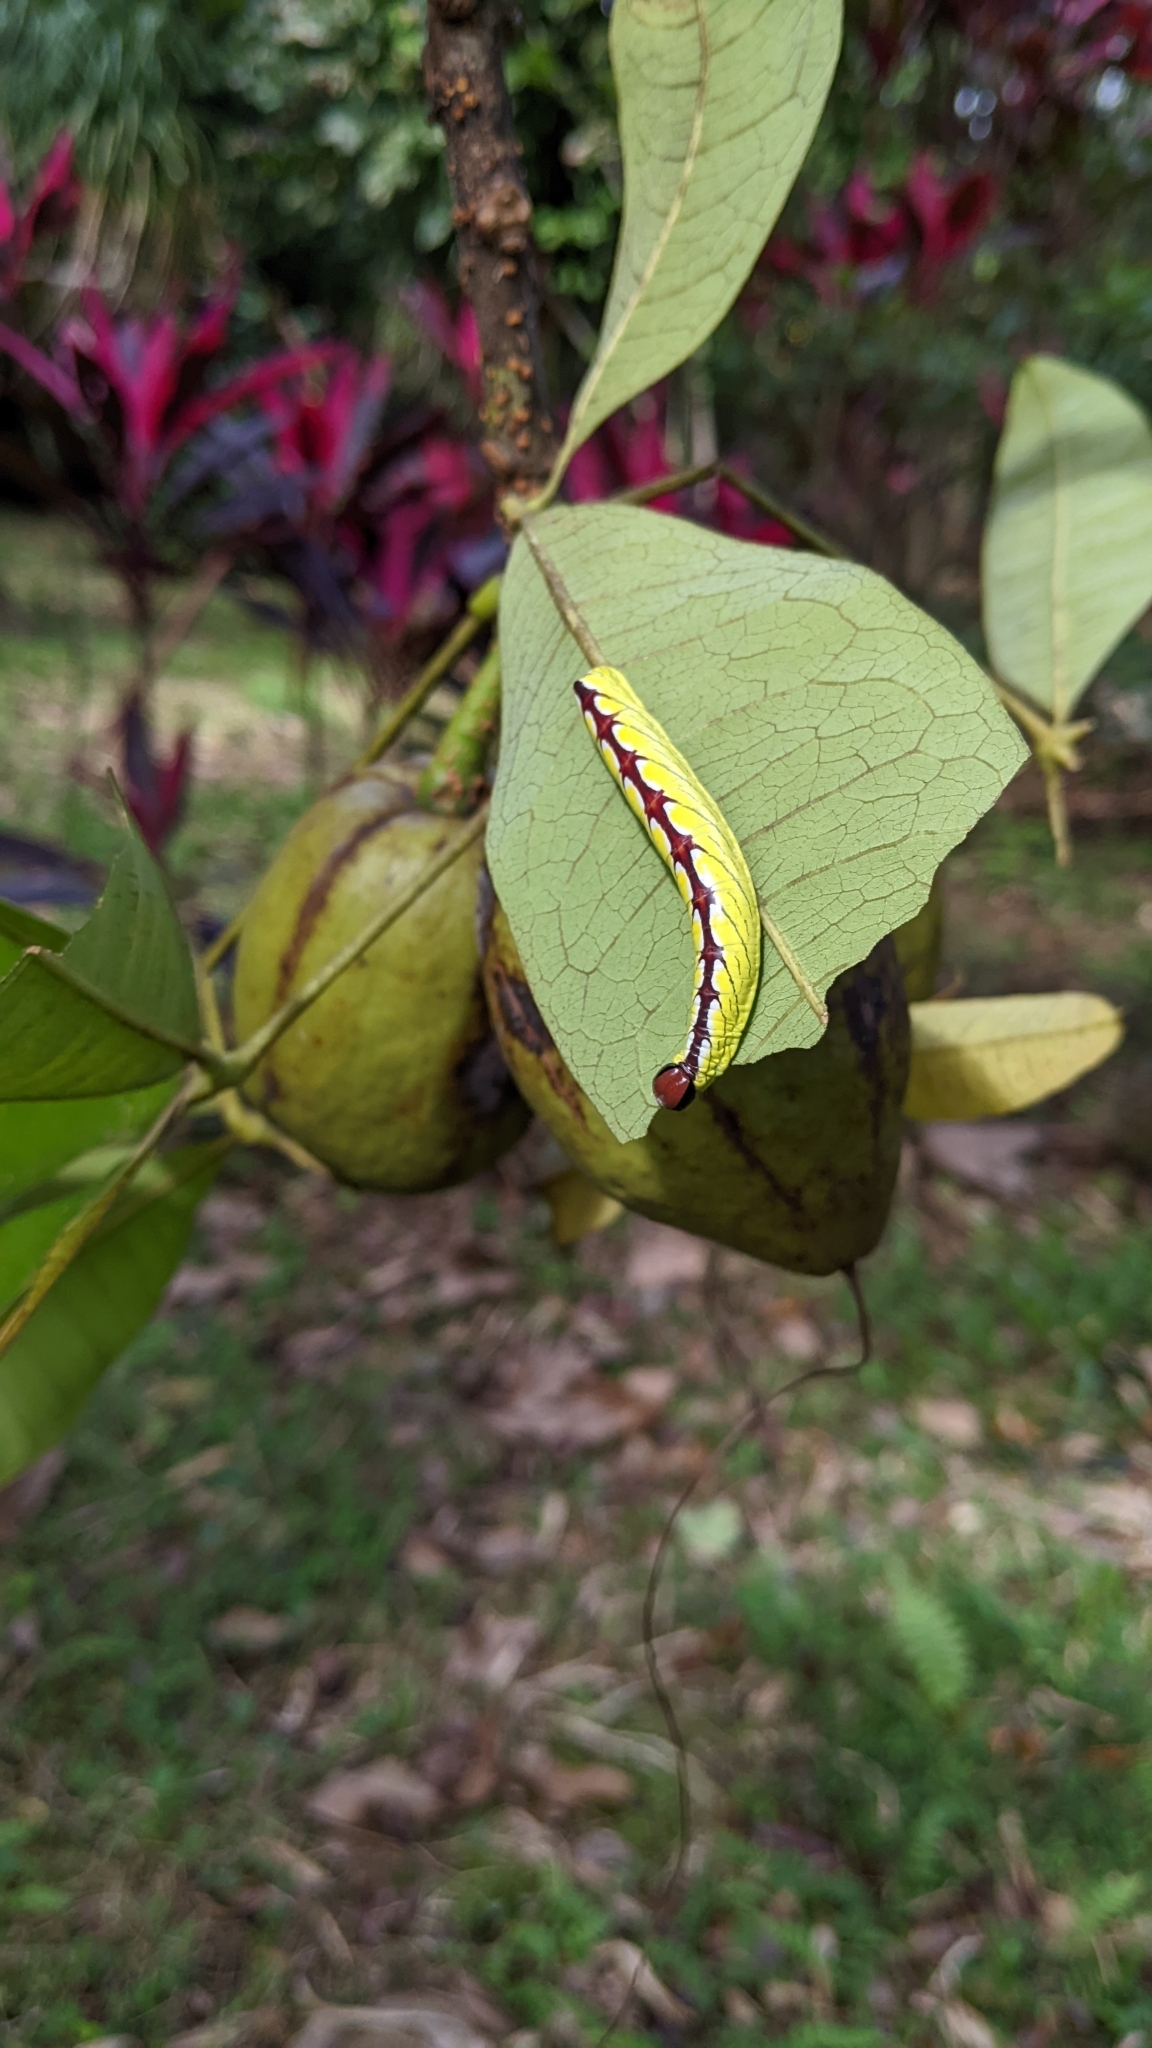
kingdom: Animalia
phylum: Arthropoda
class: Insecta
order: Lepidoptera
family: Notodontidae
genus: Chadisra
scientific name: Chadisra bipars
